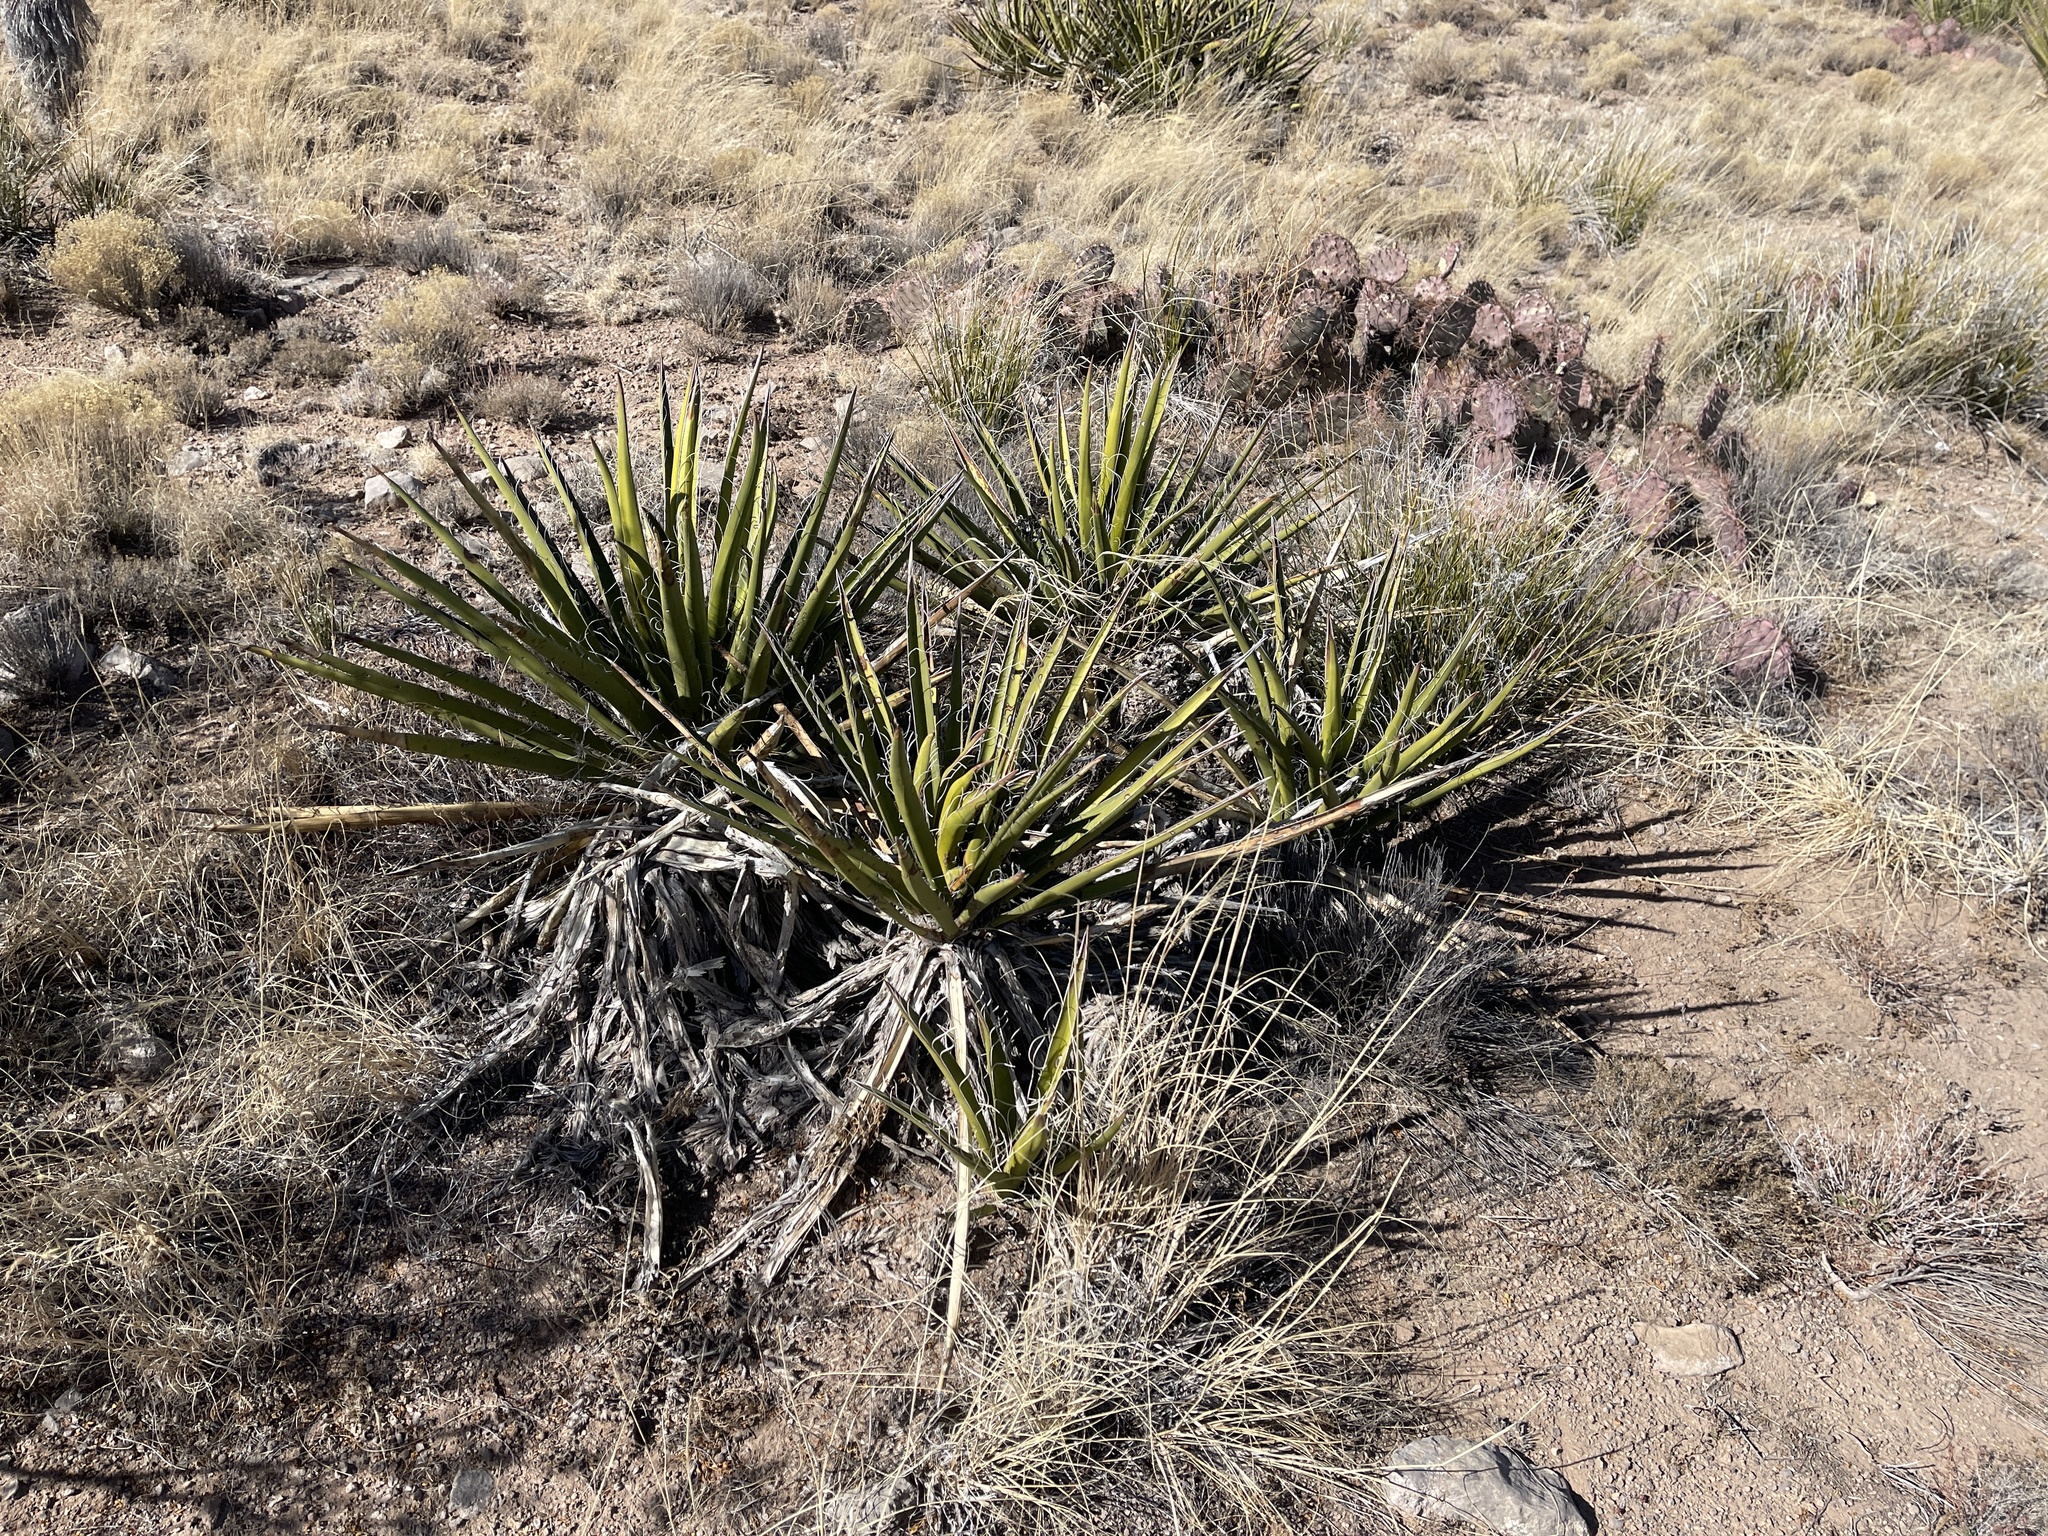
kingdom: Plantae
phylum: Tracheophyta
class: Liliopsida
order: Asparagales
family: Asparagaceae
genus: Yucca
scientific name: Yucca baccata
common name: Banana yucca
